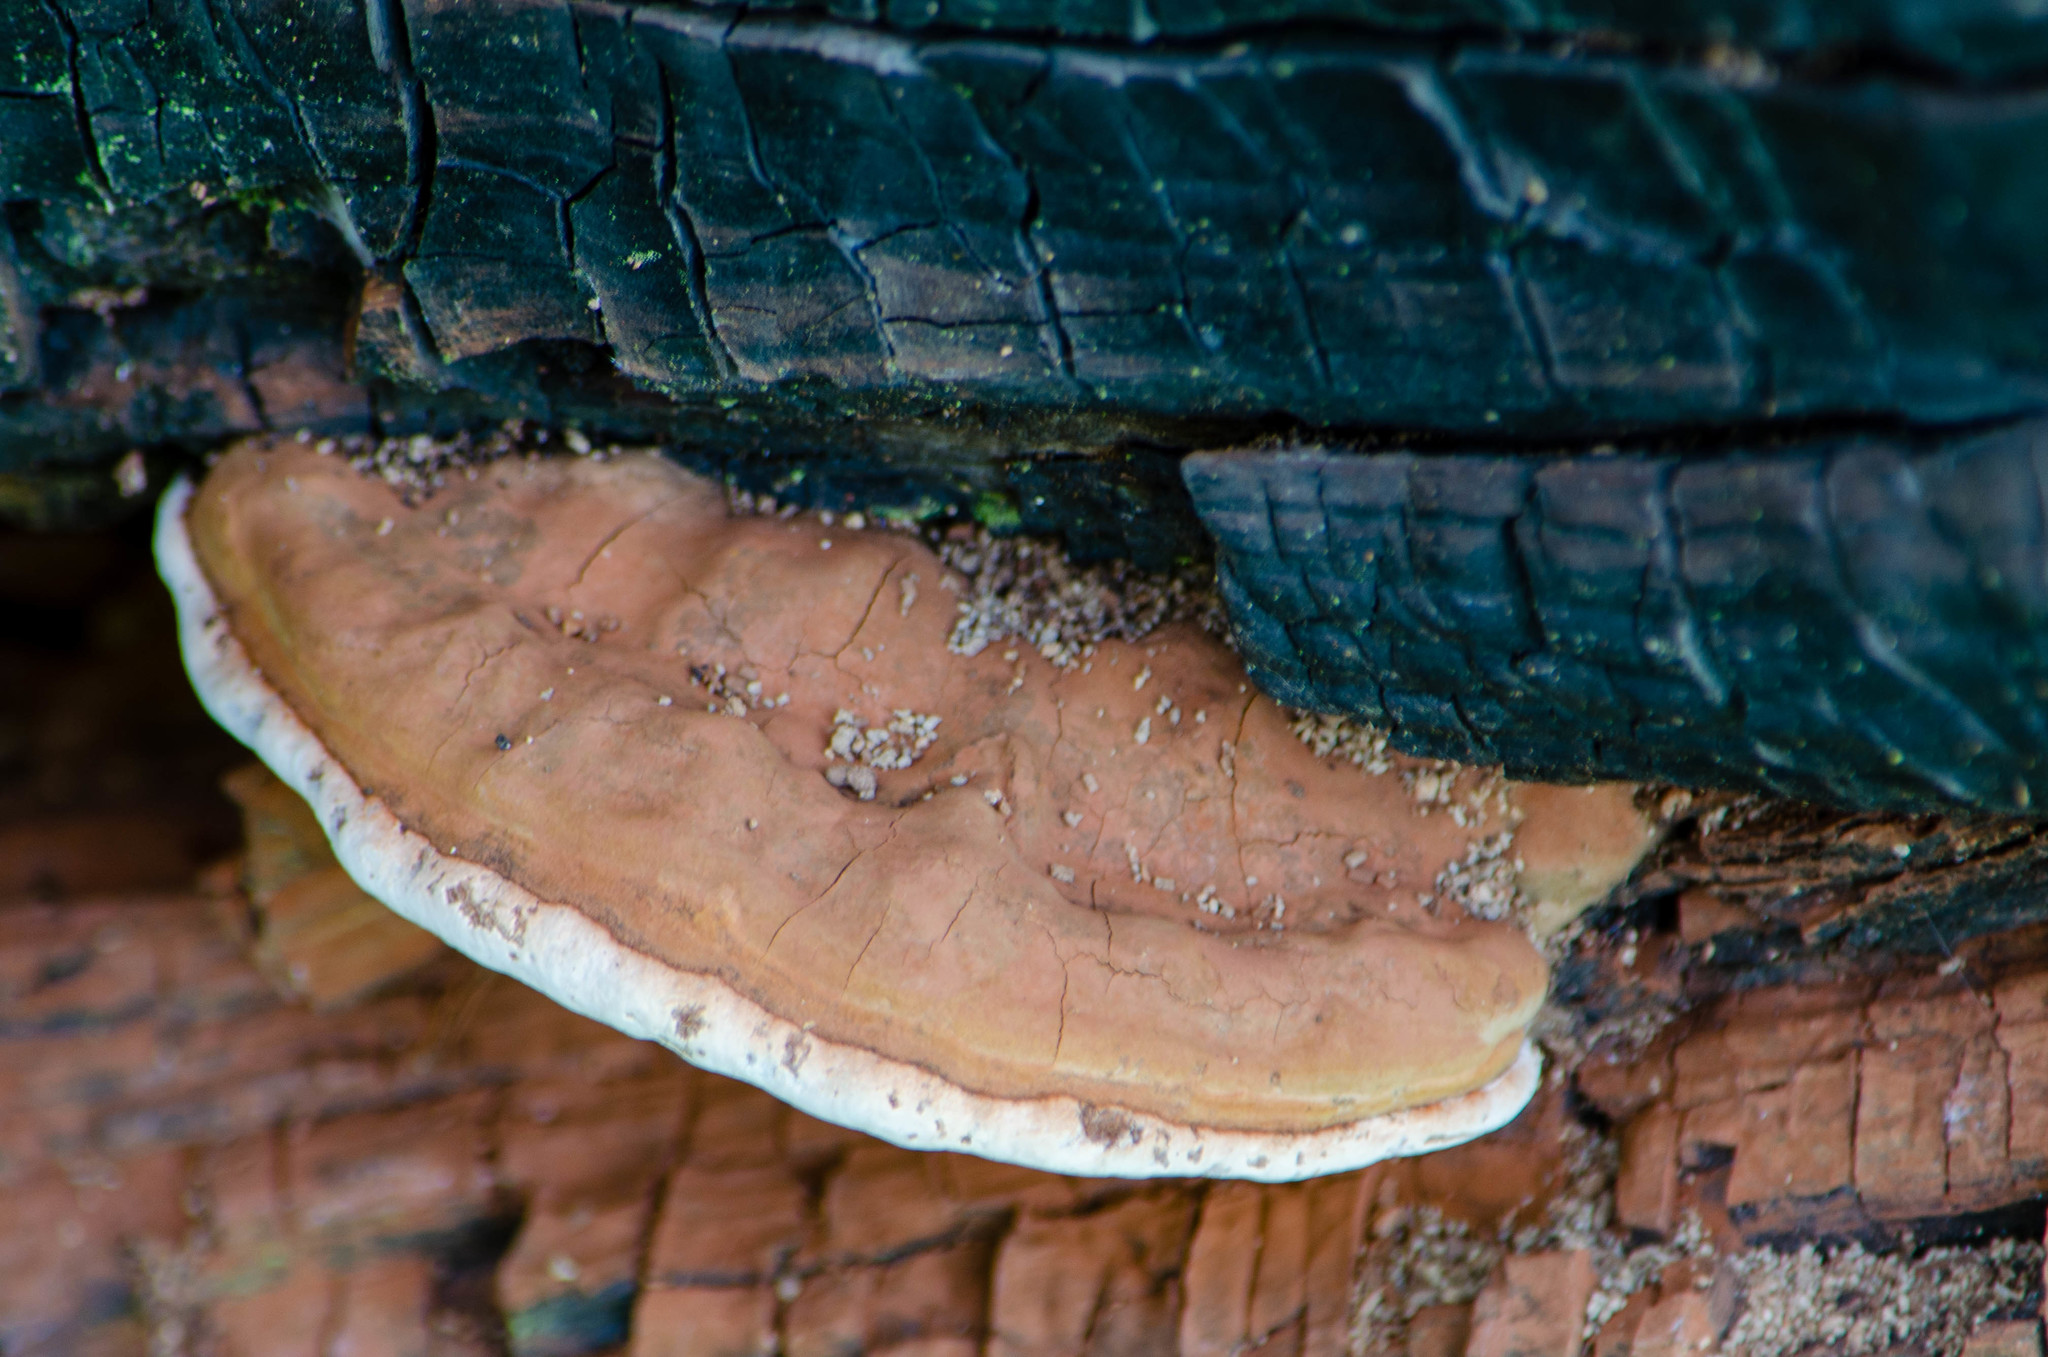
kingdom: Fungi
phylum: Basidiomycota
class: Agaricomycetes
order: Polyporales
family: Polyporaceae
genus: Ganoderma
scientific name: Ganoderma resinaceum
